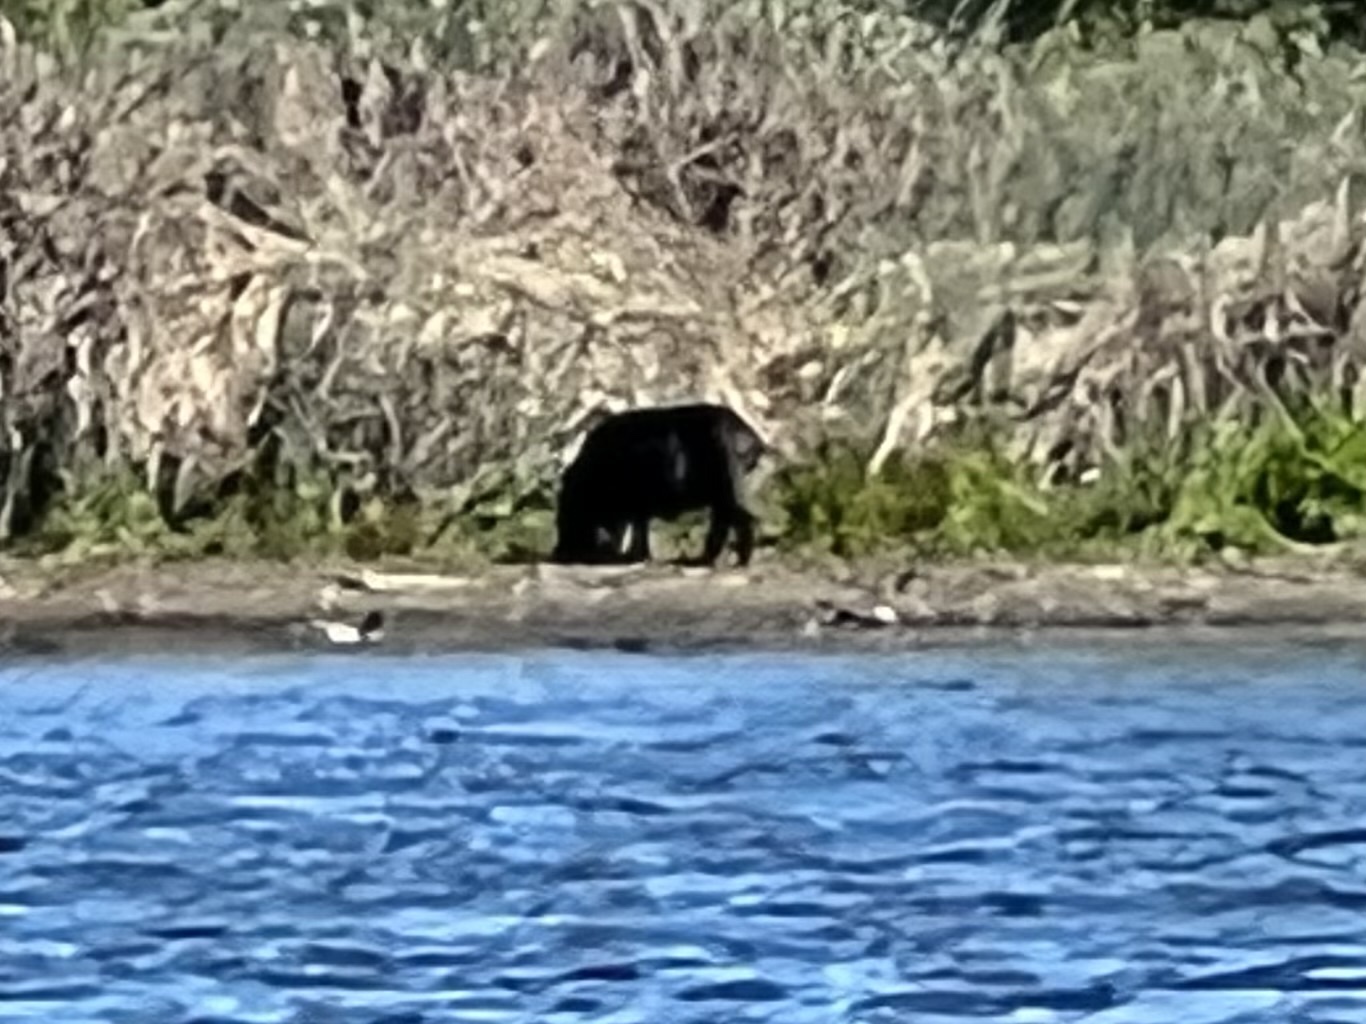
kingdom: Animalia
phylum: Chordata
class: Mammalia
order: Artiodactyla
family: Suidae
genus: Sus
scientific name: Sus scrofa
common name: Wild boar
